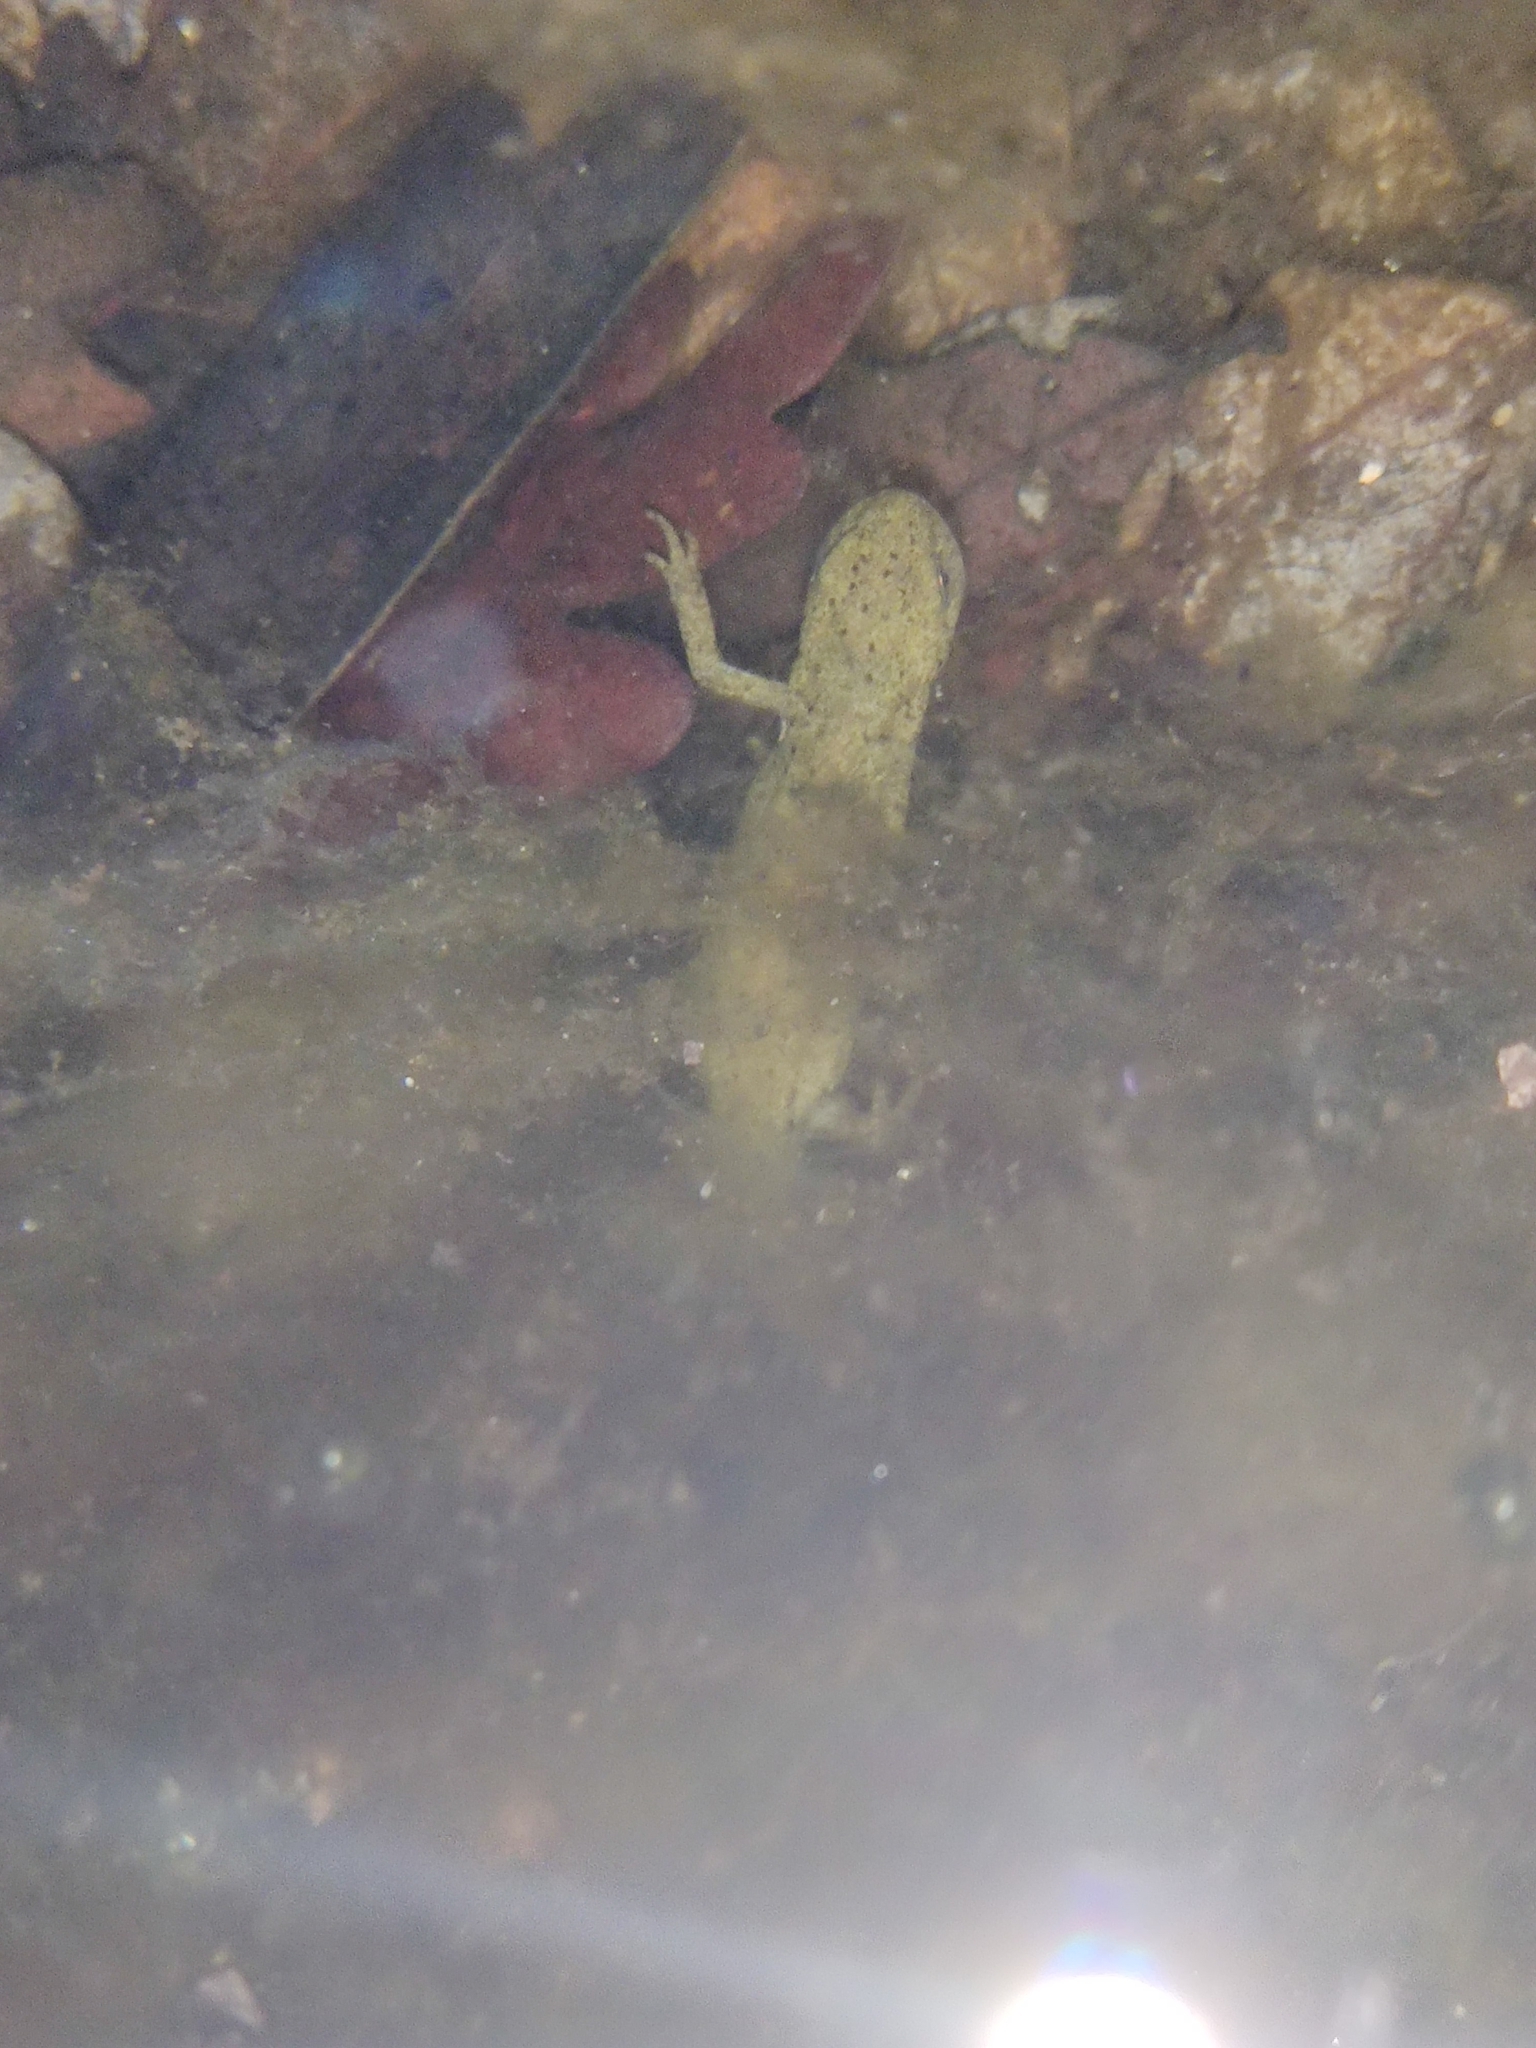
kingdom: Animalia
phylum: Chordata
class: Amphibia
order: Caudata
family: Salamandridae
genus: Lissotriton
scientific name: Lissotriton boscai
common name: Bosca's newt
